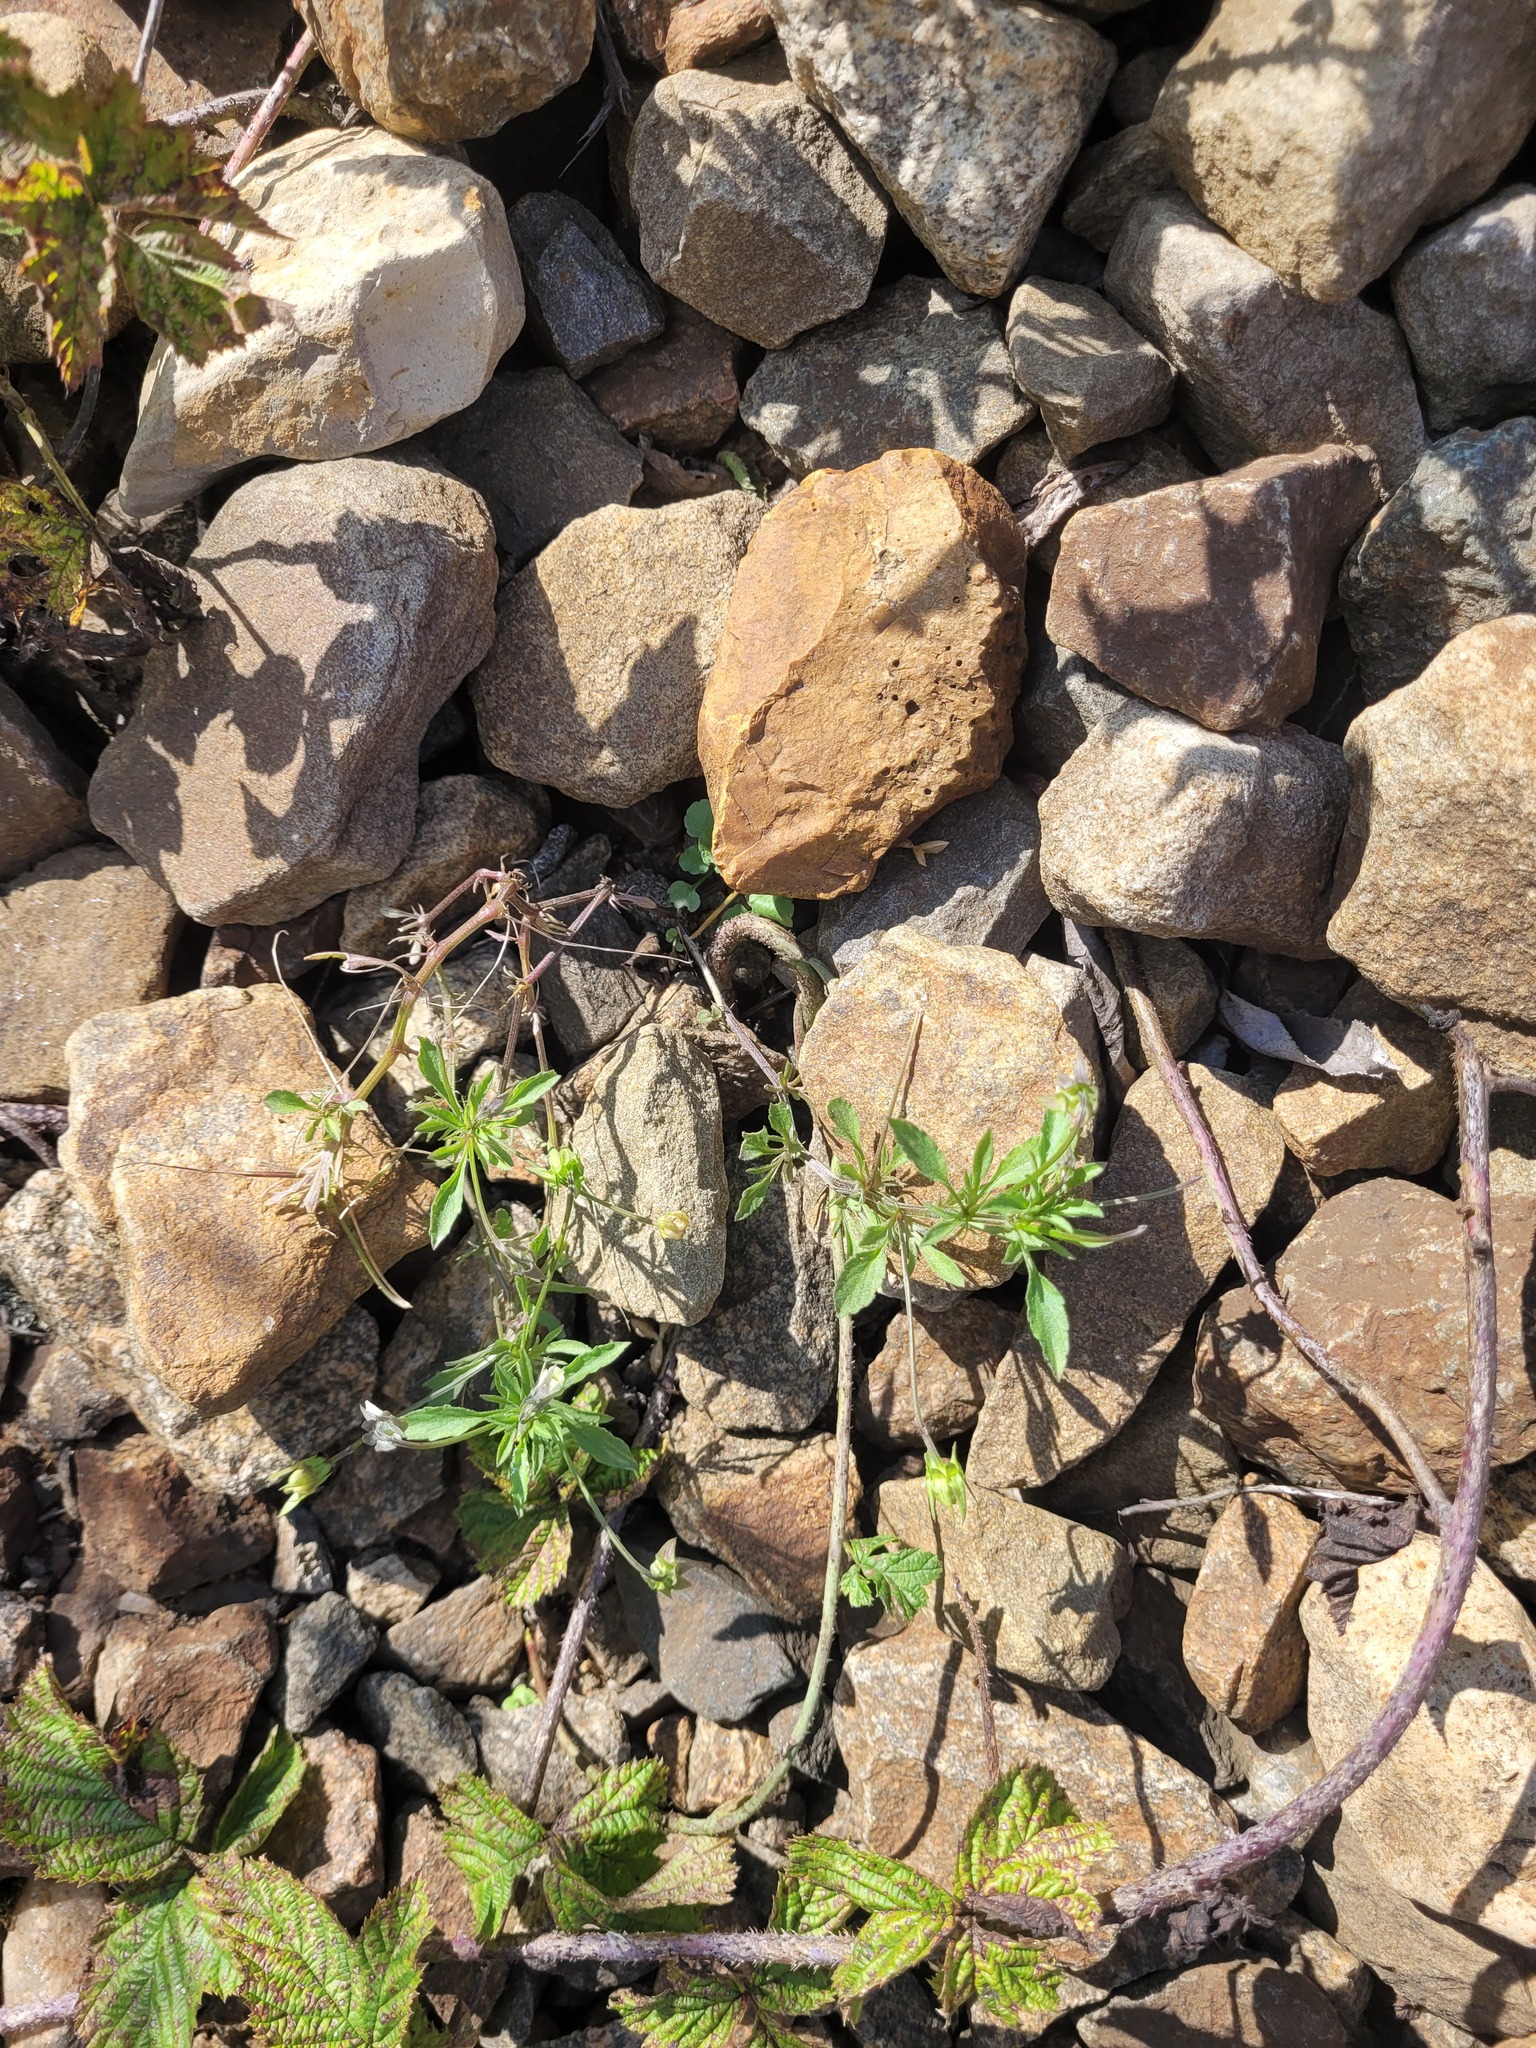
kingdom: Plantae
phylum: Tracheophyta
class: Magnoliopsida
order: Malpighiales
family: Violaceae
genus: Viola
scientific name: Viola arvensis
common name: Field pansy
